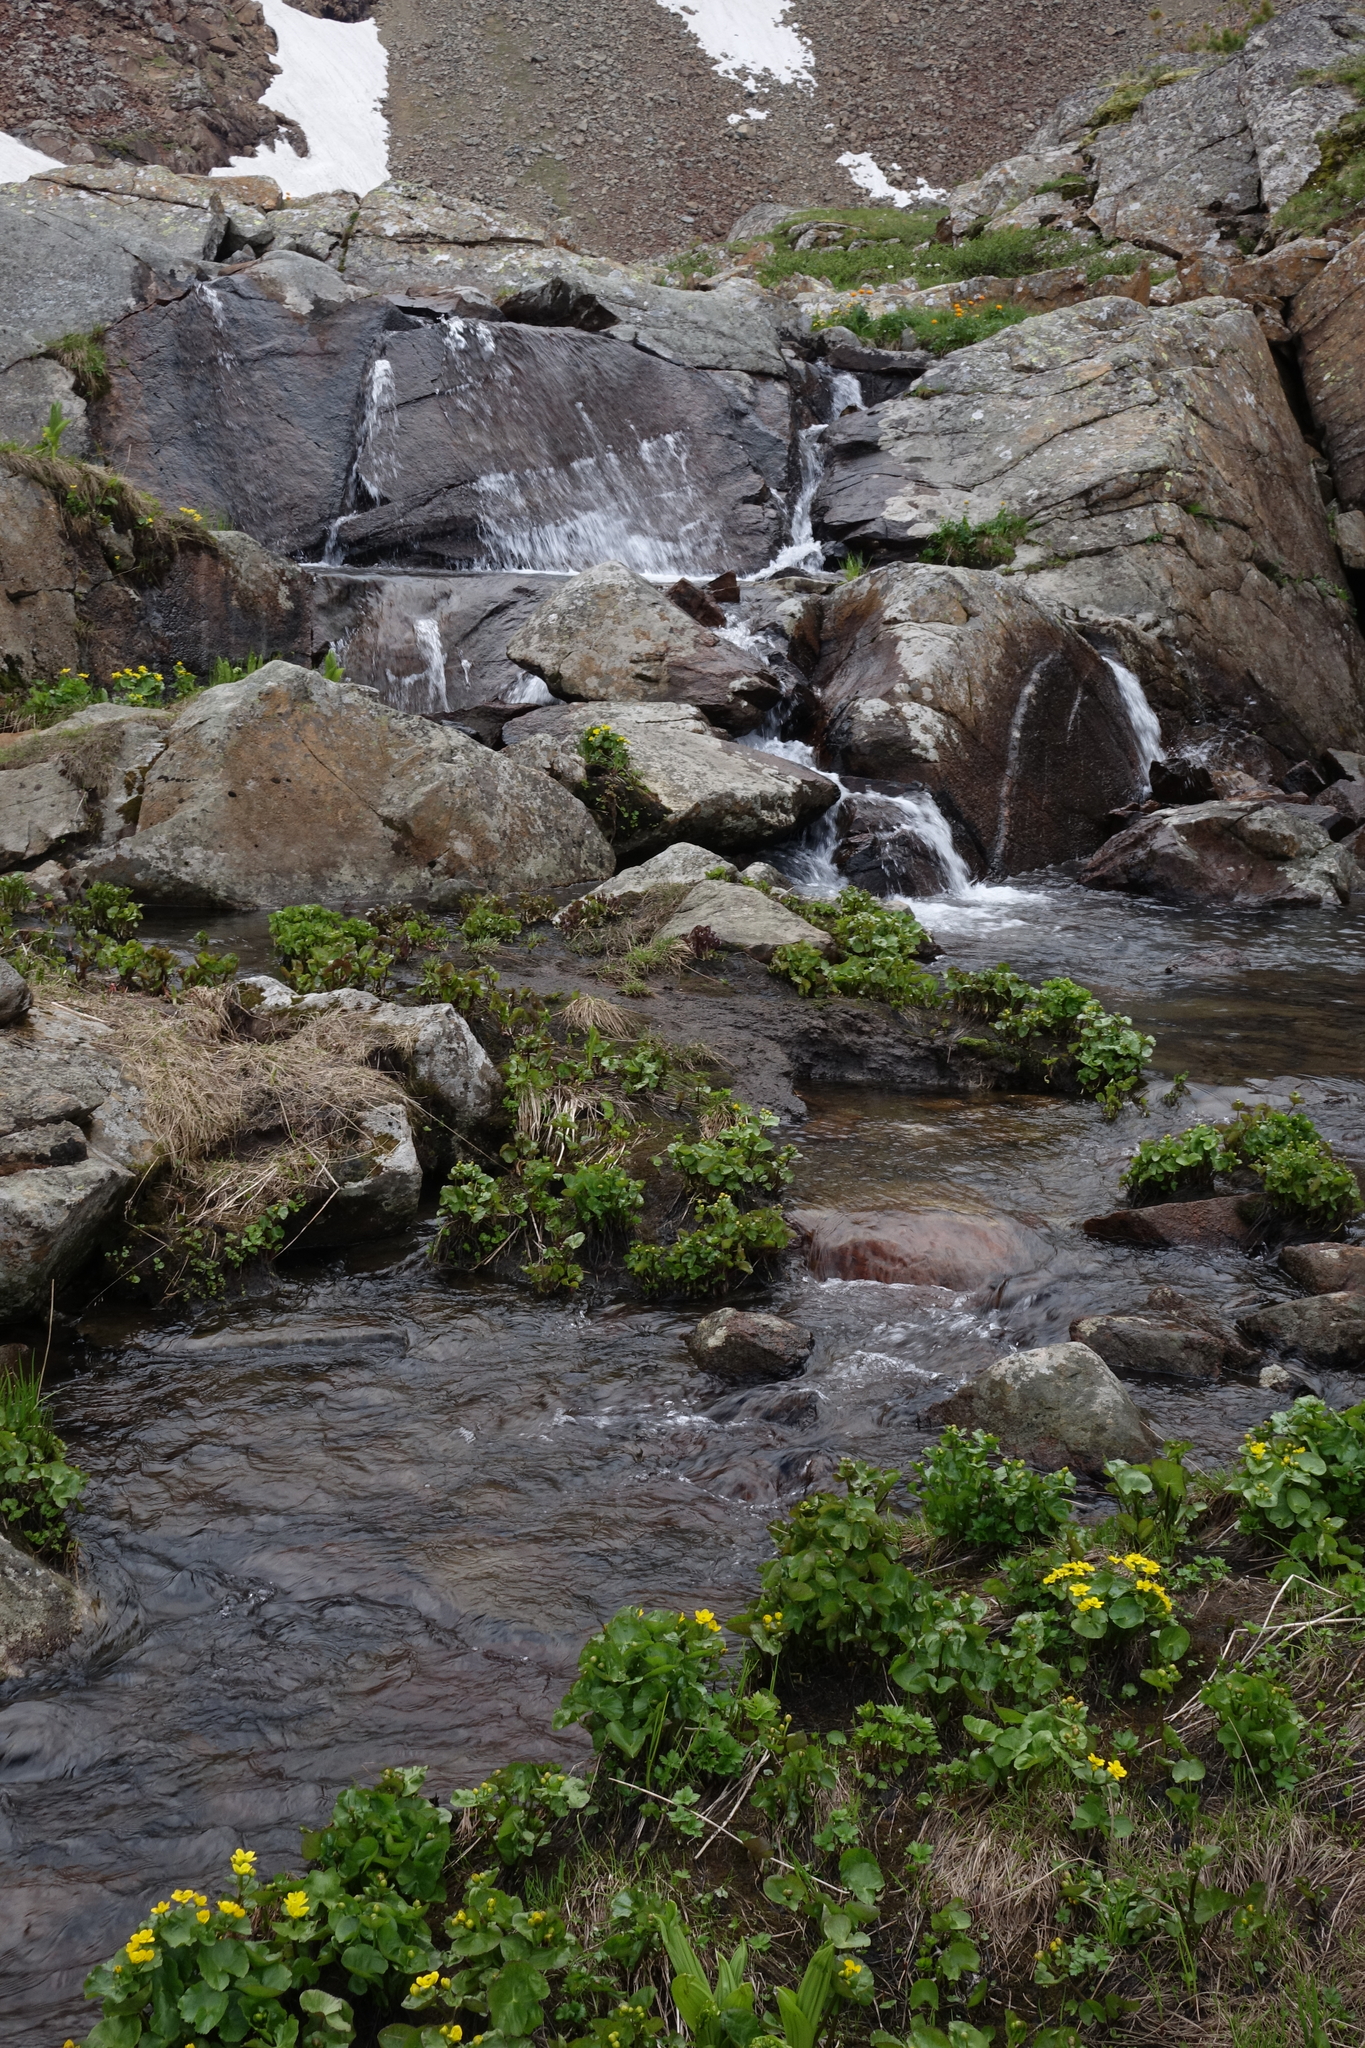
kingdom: Plantae
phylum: Tracheophyta
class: Magnoliopsida
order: Ranunculales
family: Ranunculaceae
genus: Caltha
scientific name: Caltha palustris
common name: Marsh marigold
